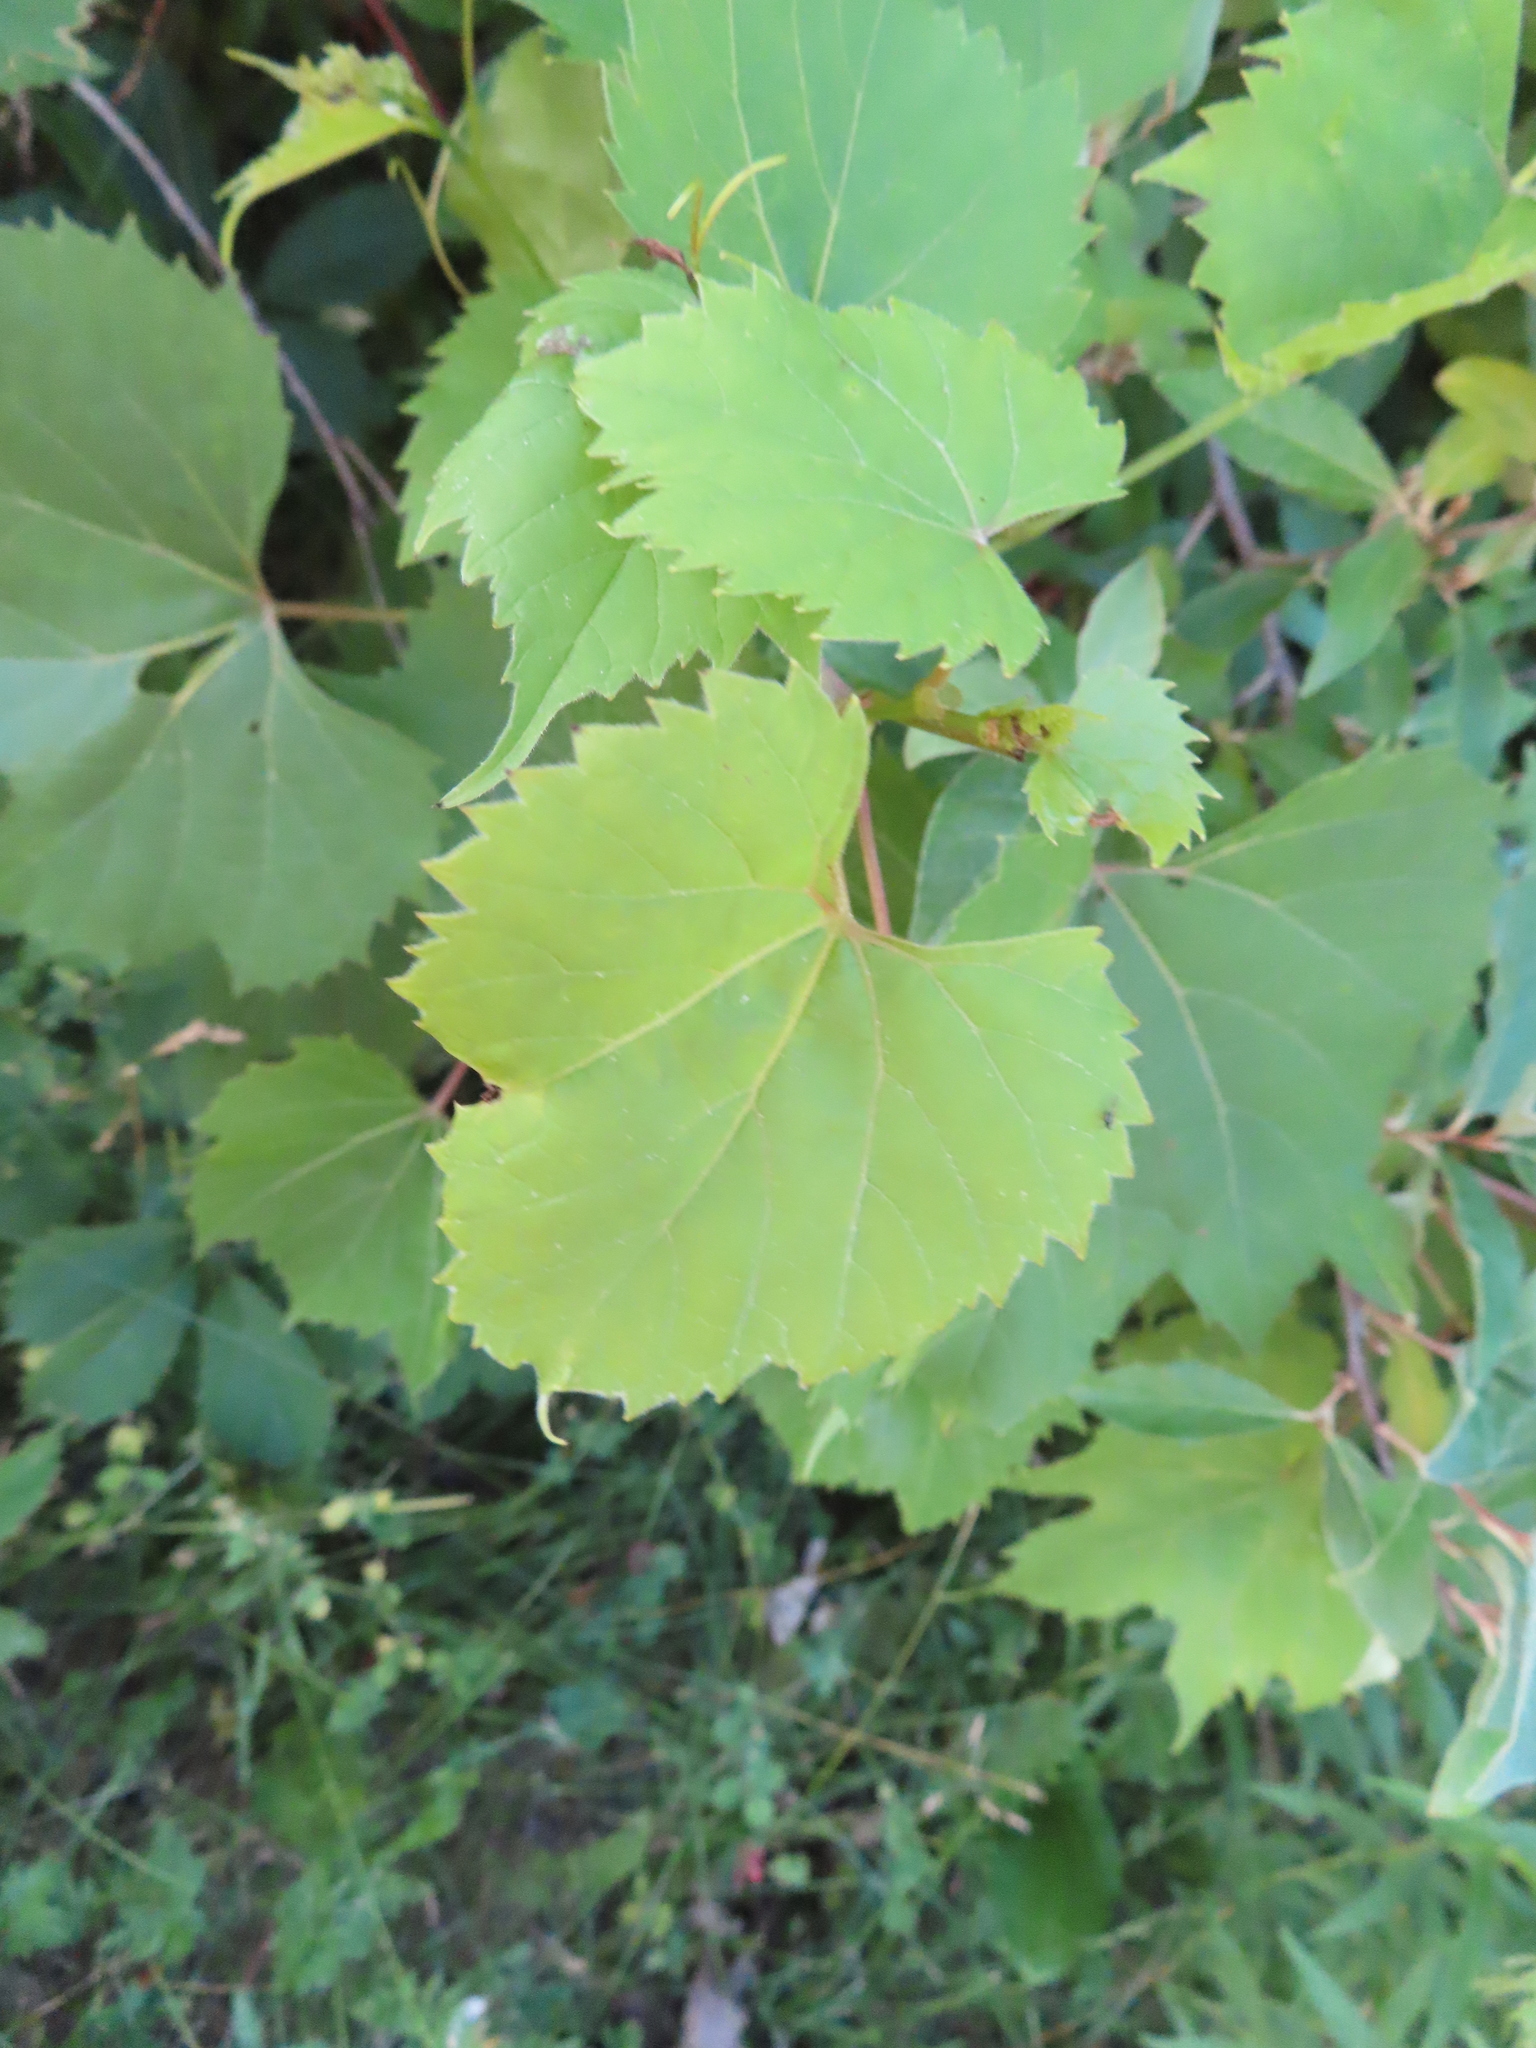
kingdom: Plantae
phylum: Tracheophyta
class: Magnoliopsida
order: Vitales
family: Vitaceae
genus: Vitis
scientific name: Vitis riparia
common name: Frost grape
